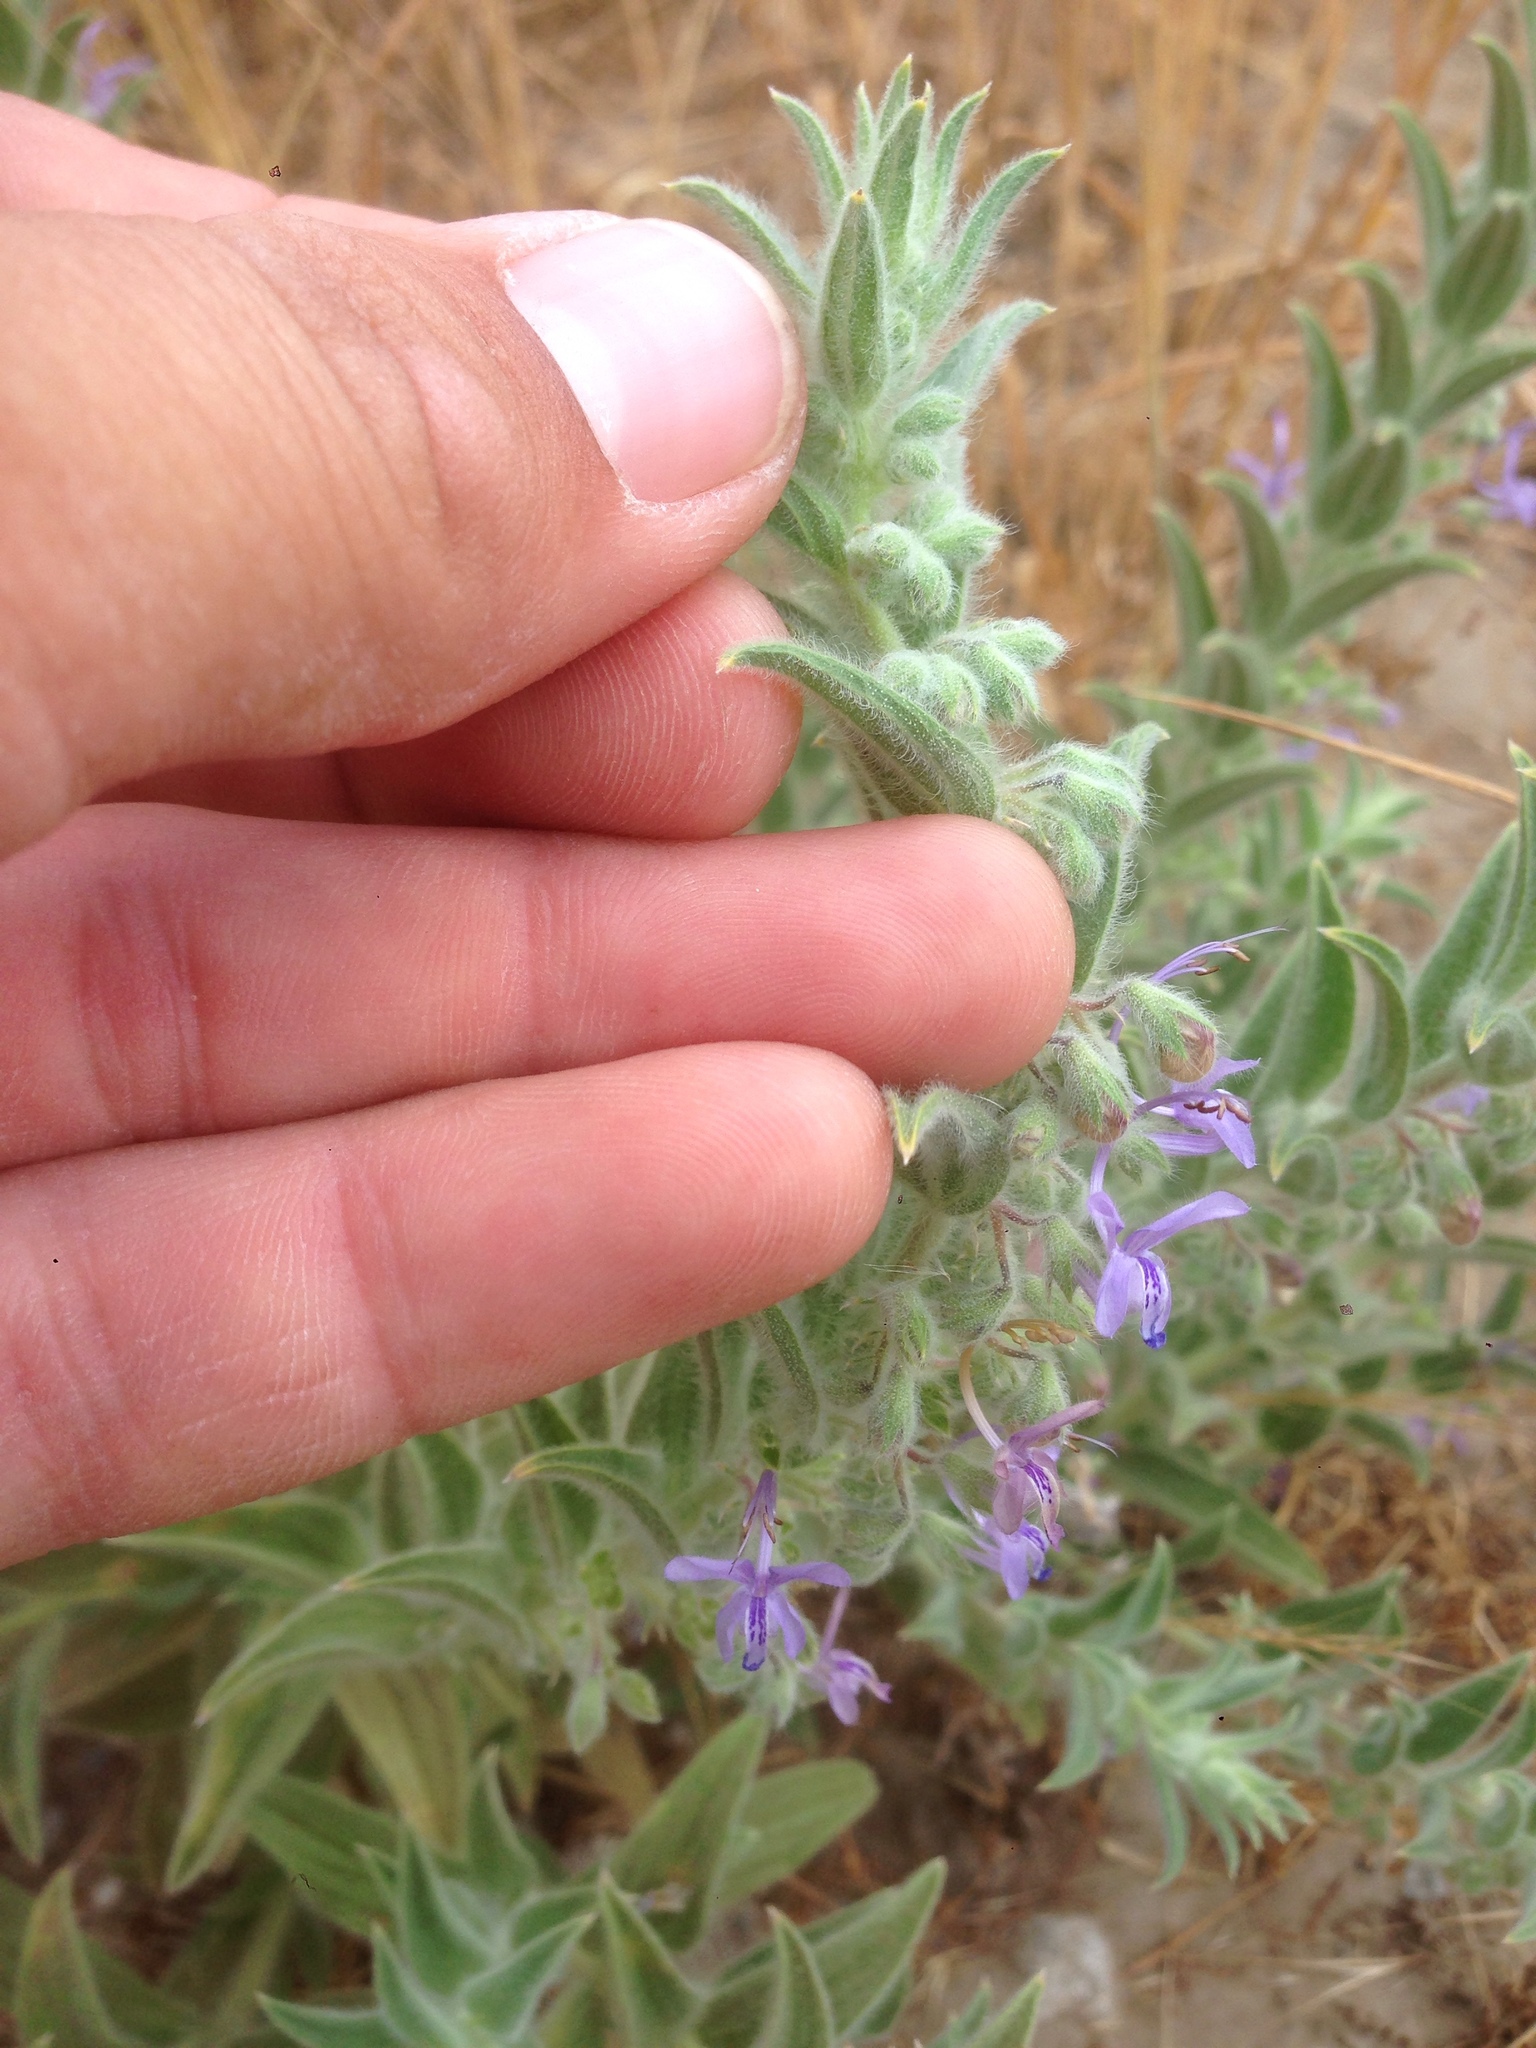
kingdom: Plantae
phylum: Tracheophyta
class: Magnoliopsida
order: Lamiales
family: Lamiaceae
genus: Trichostema
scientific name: Trichostema lanceolatum
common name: Vinegar-weed
